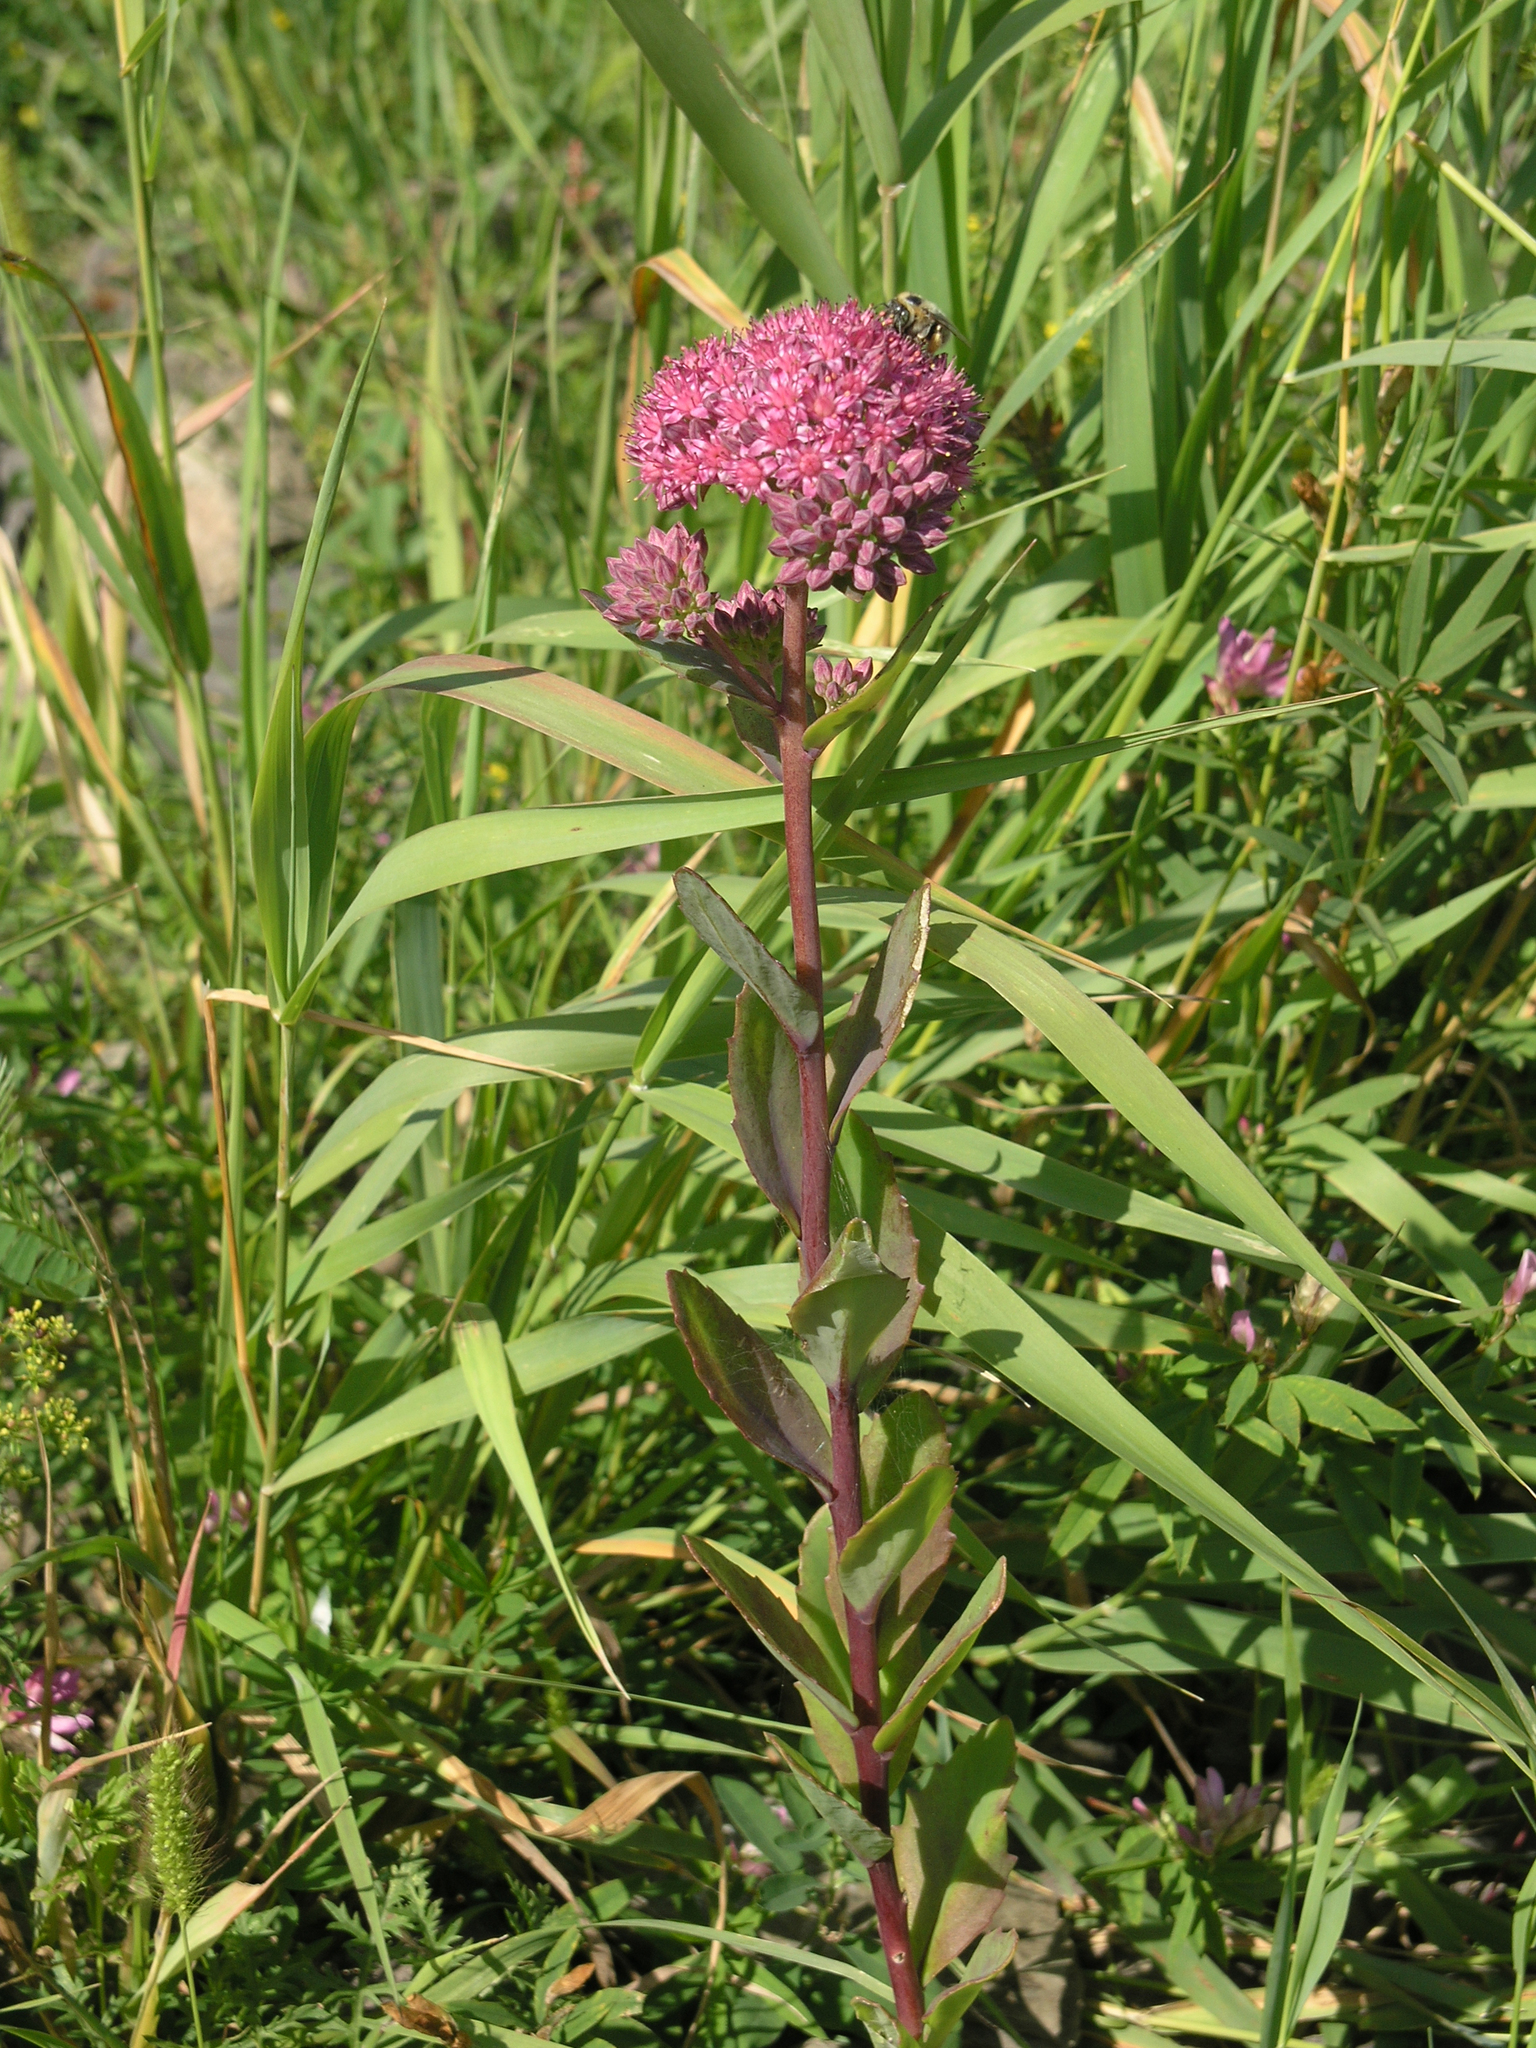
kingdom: Plantae
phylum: Tracheophyta
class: Magnoliopsida
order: Saxifragales
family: Crassulaceae
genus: Hylotelephium
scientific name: Hylotelephium telephium
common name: Live-forever
